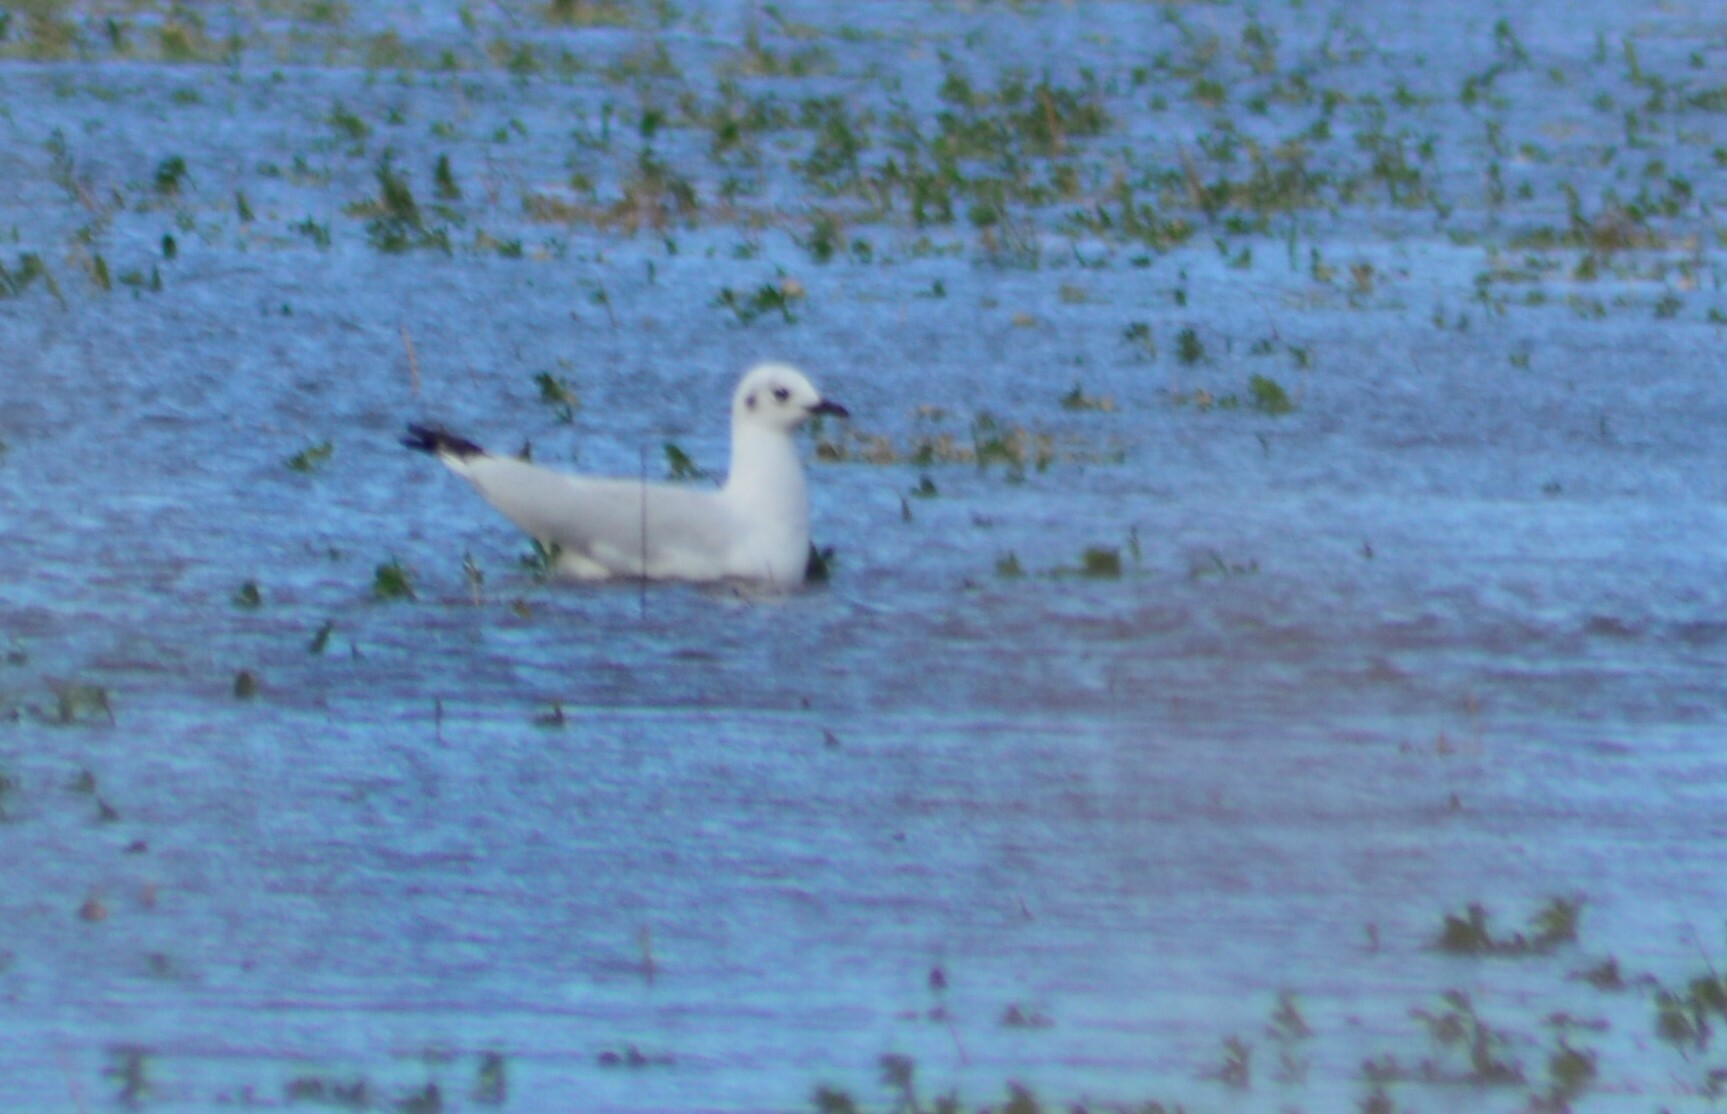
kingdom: Animalia
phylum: Chordata
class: Aves
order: Charadriiformes
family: Laridae
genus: Chroicocephalus
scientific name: Chroicocephalus maculipennis
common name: Brown-hooded gull
